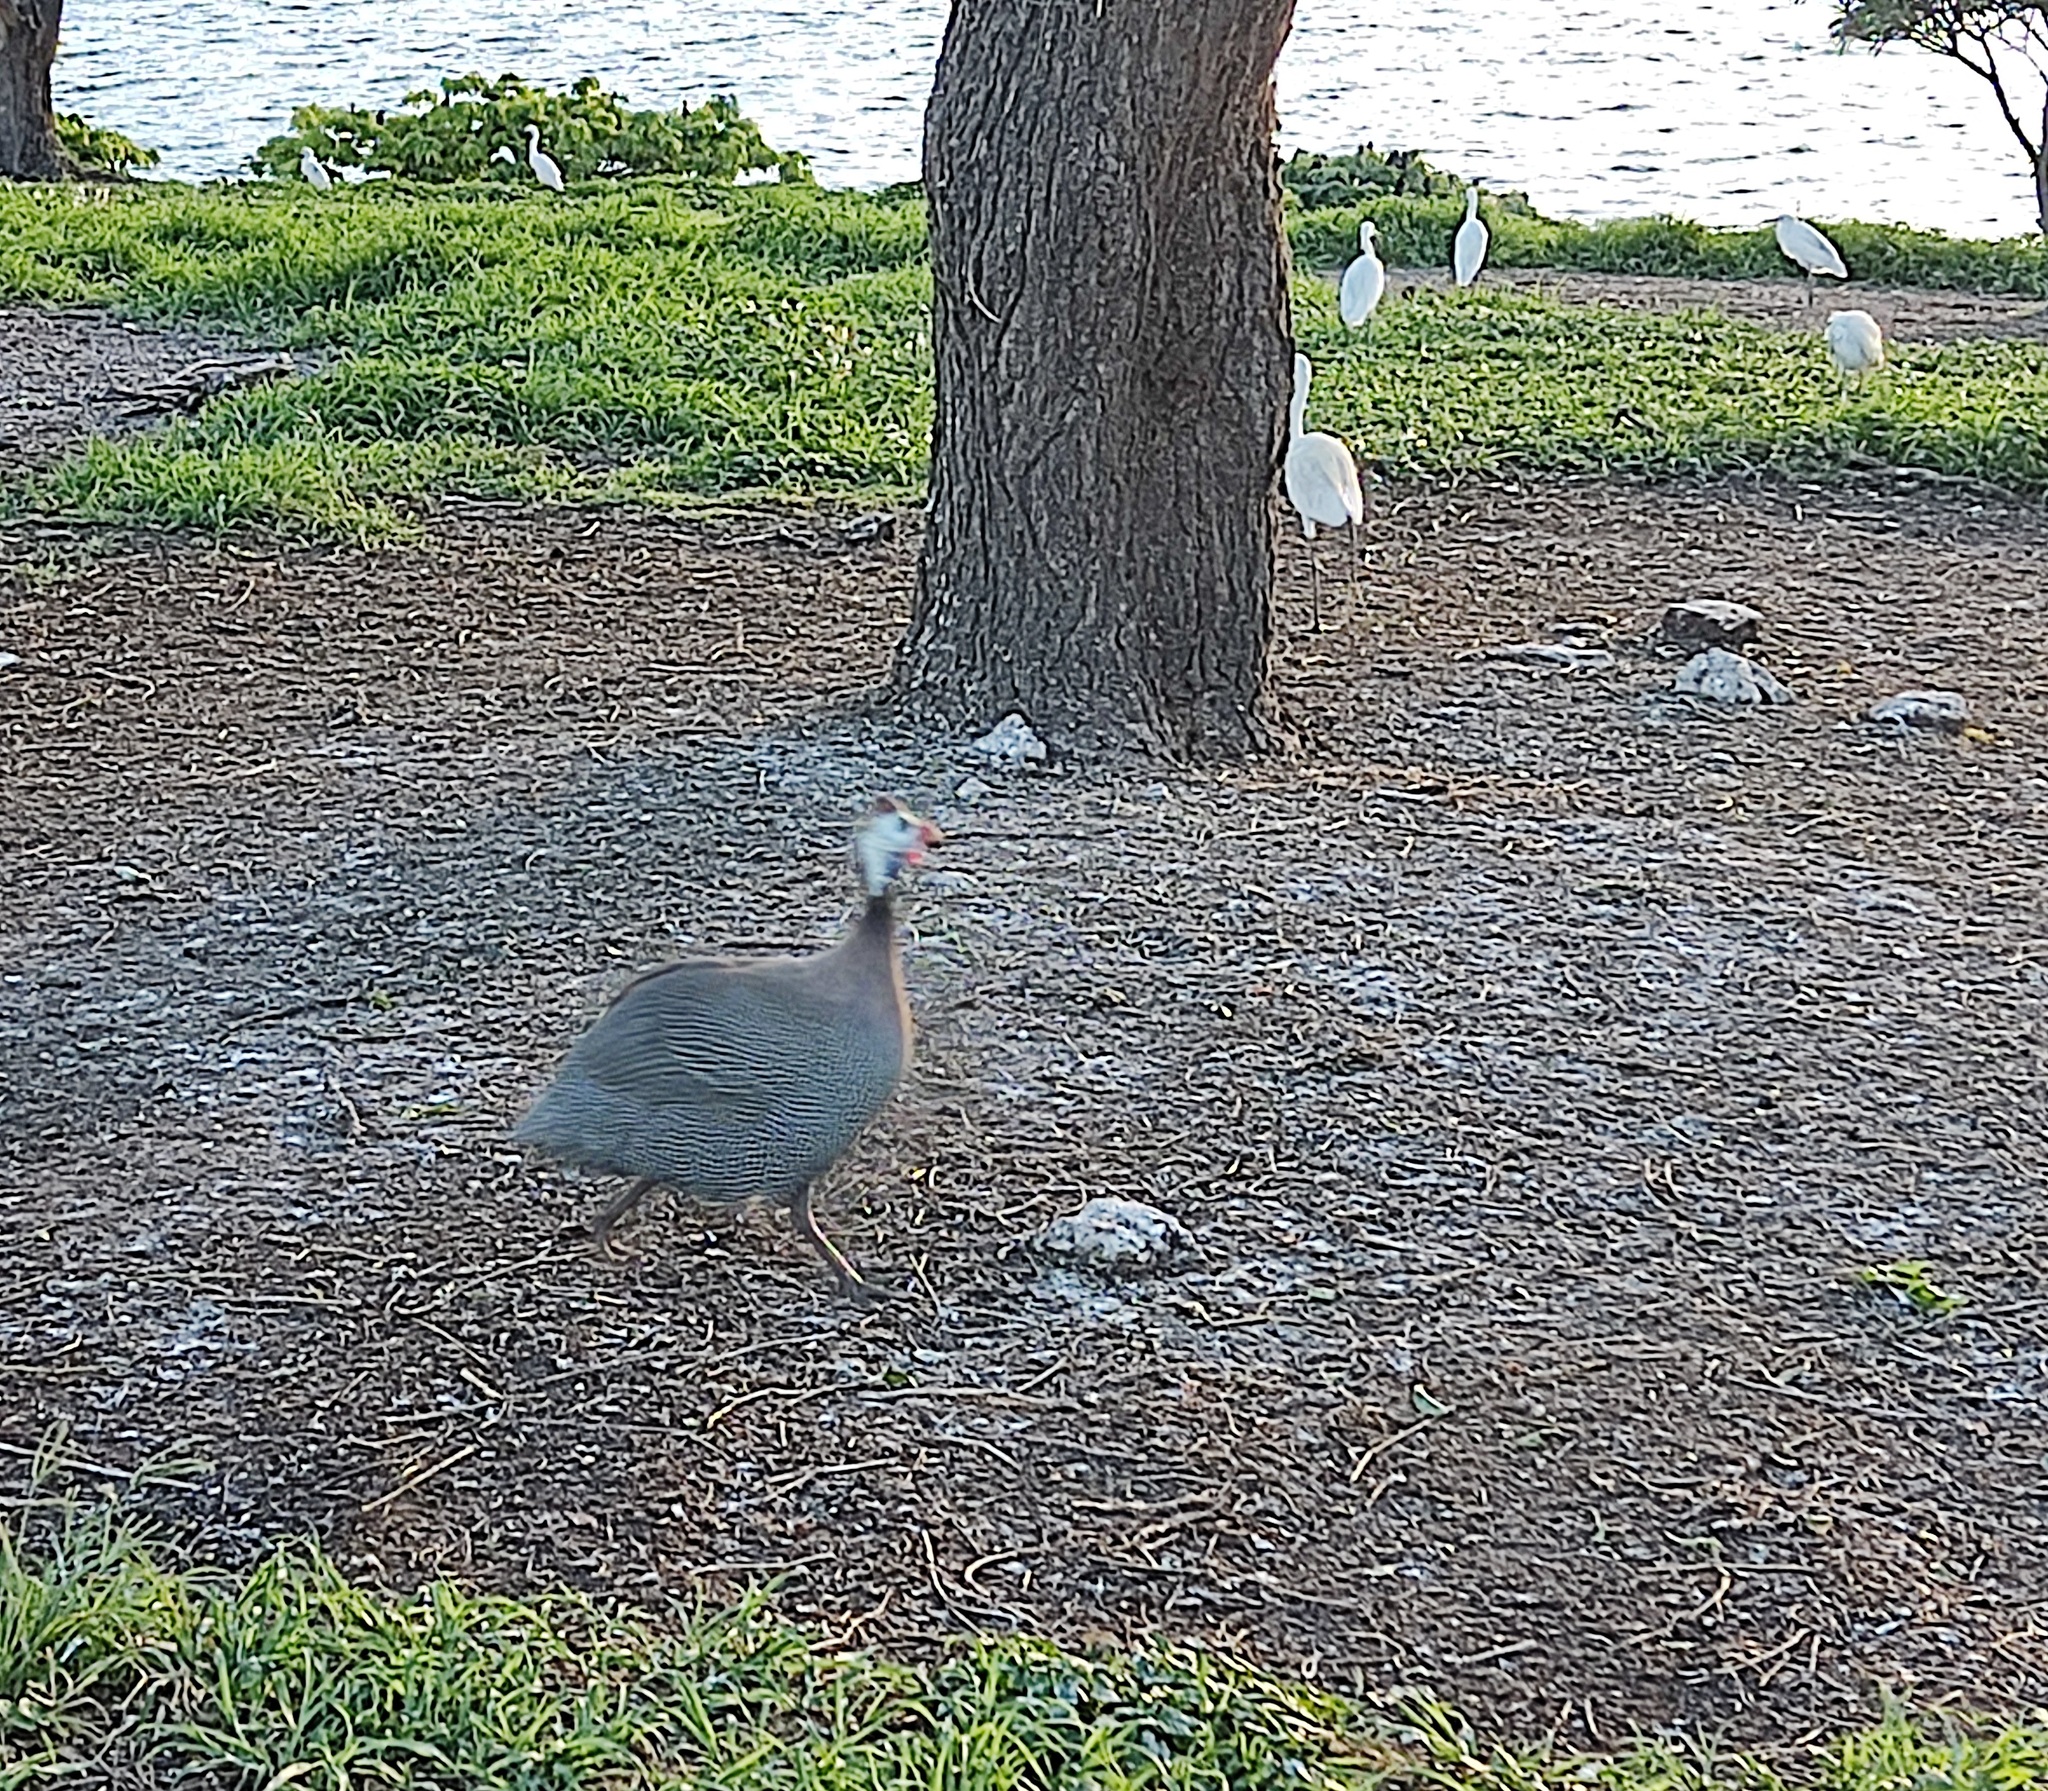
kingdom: Animalia
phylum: Chordata
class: Aves
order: Galliformes
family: Numididae
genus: Numida
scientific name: Numida meleagris
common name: Helmeted guineafowl
